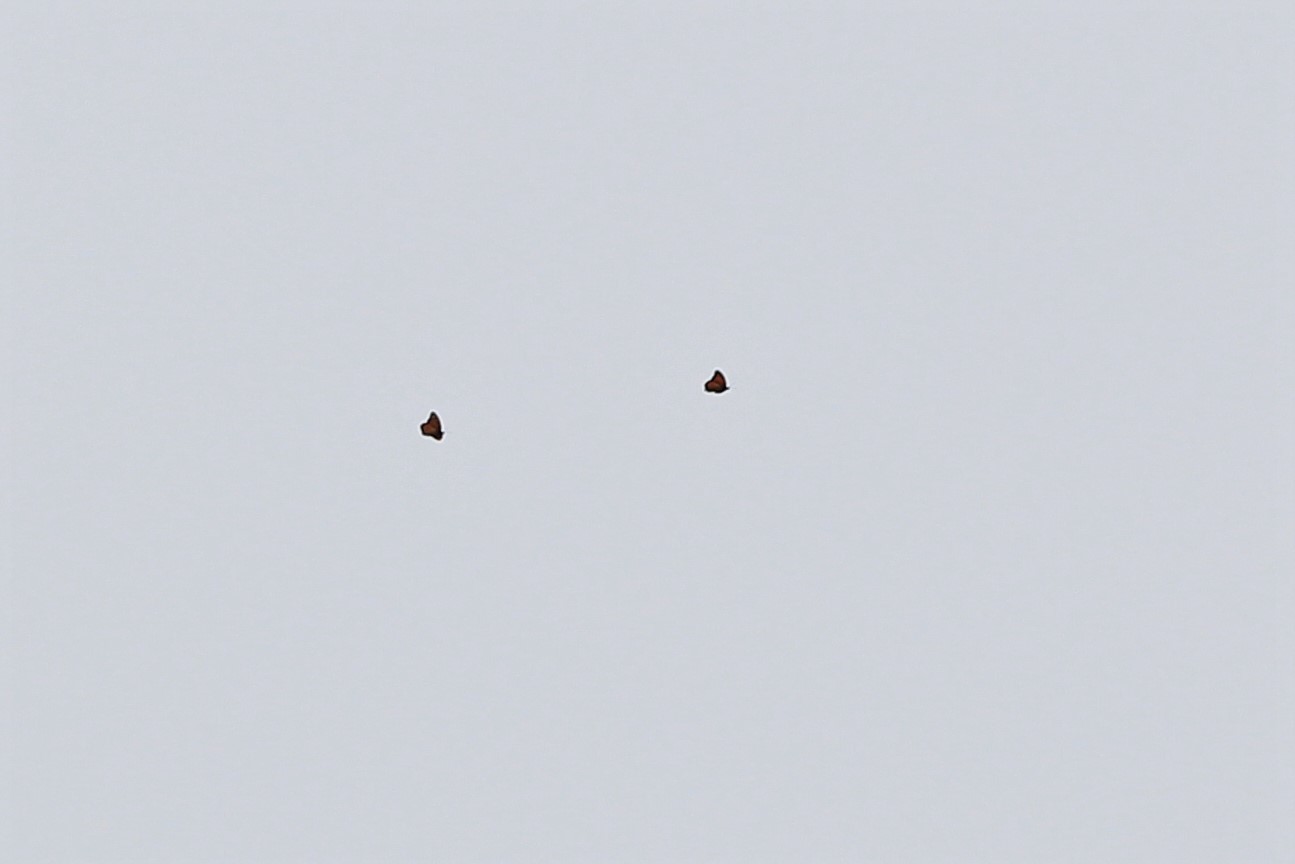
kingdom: Animalia
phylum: Arthropoda
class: Insecta
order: Lepidoptera
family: Nymphalidae
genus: Danaus
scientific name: Danaus plexippus
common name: Monarch
